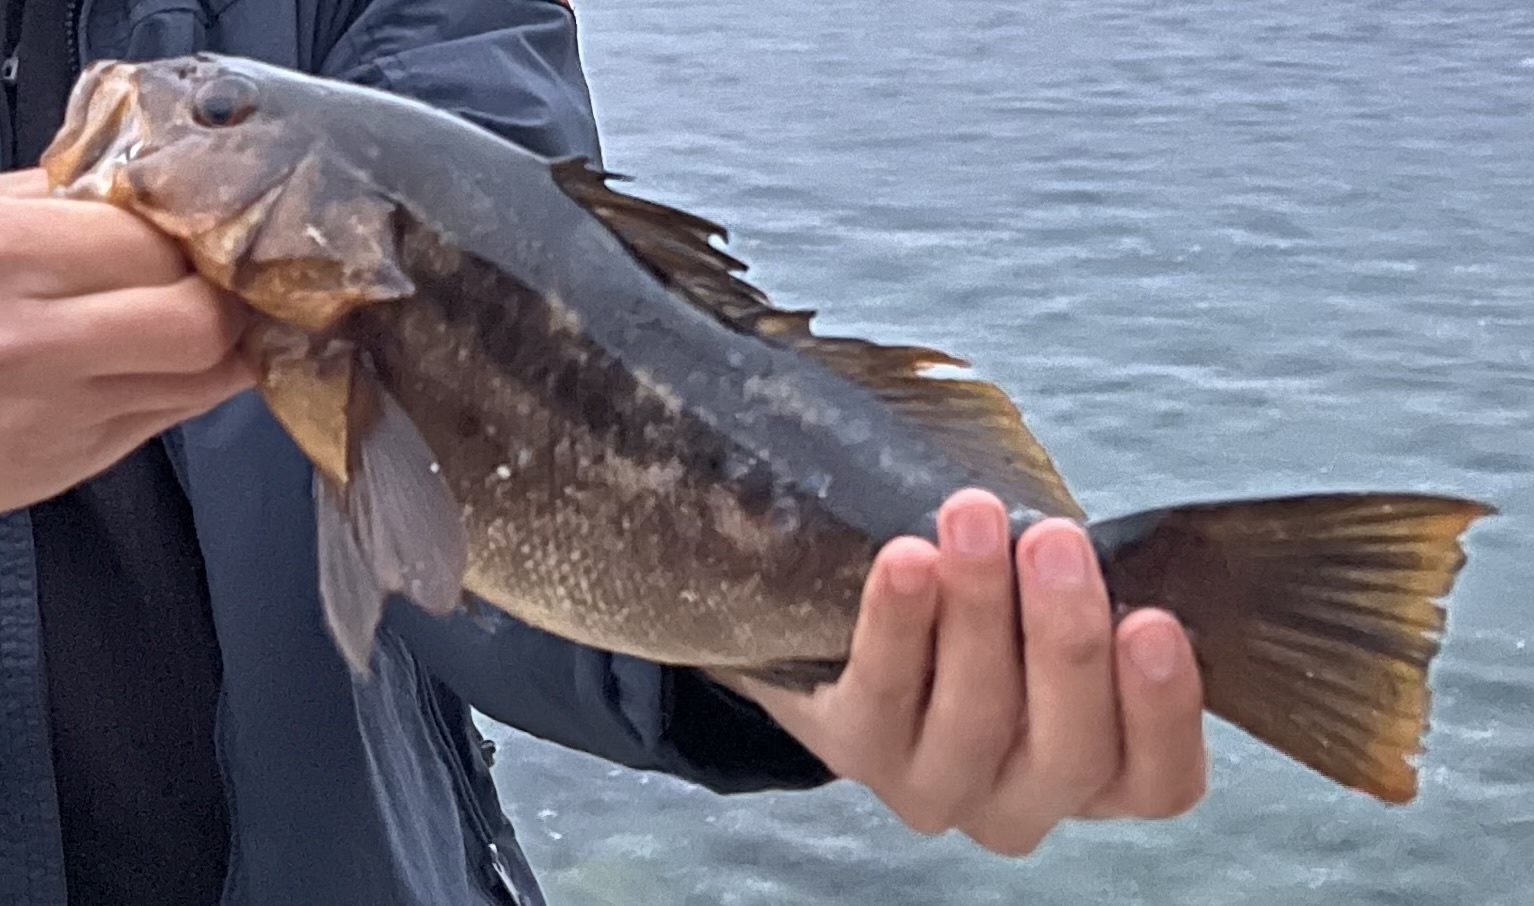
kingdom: Animalia
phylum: Chordata
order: Perciformes
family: Serranidae
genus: Paralabrax
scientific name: Paralabrax clathratus
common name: Kelp bass
